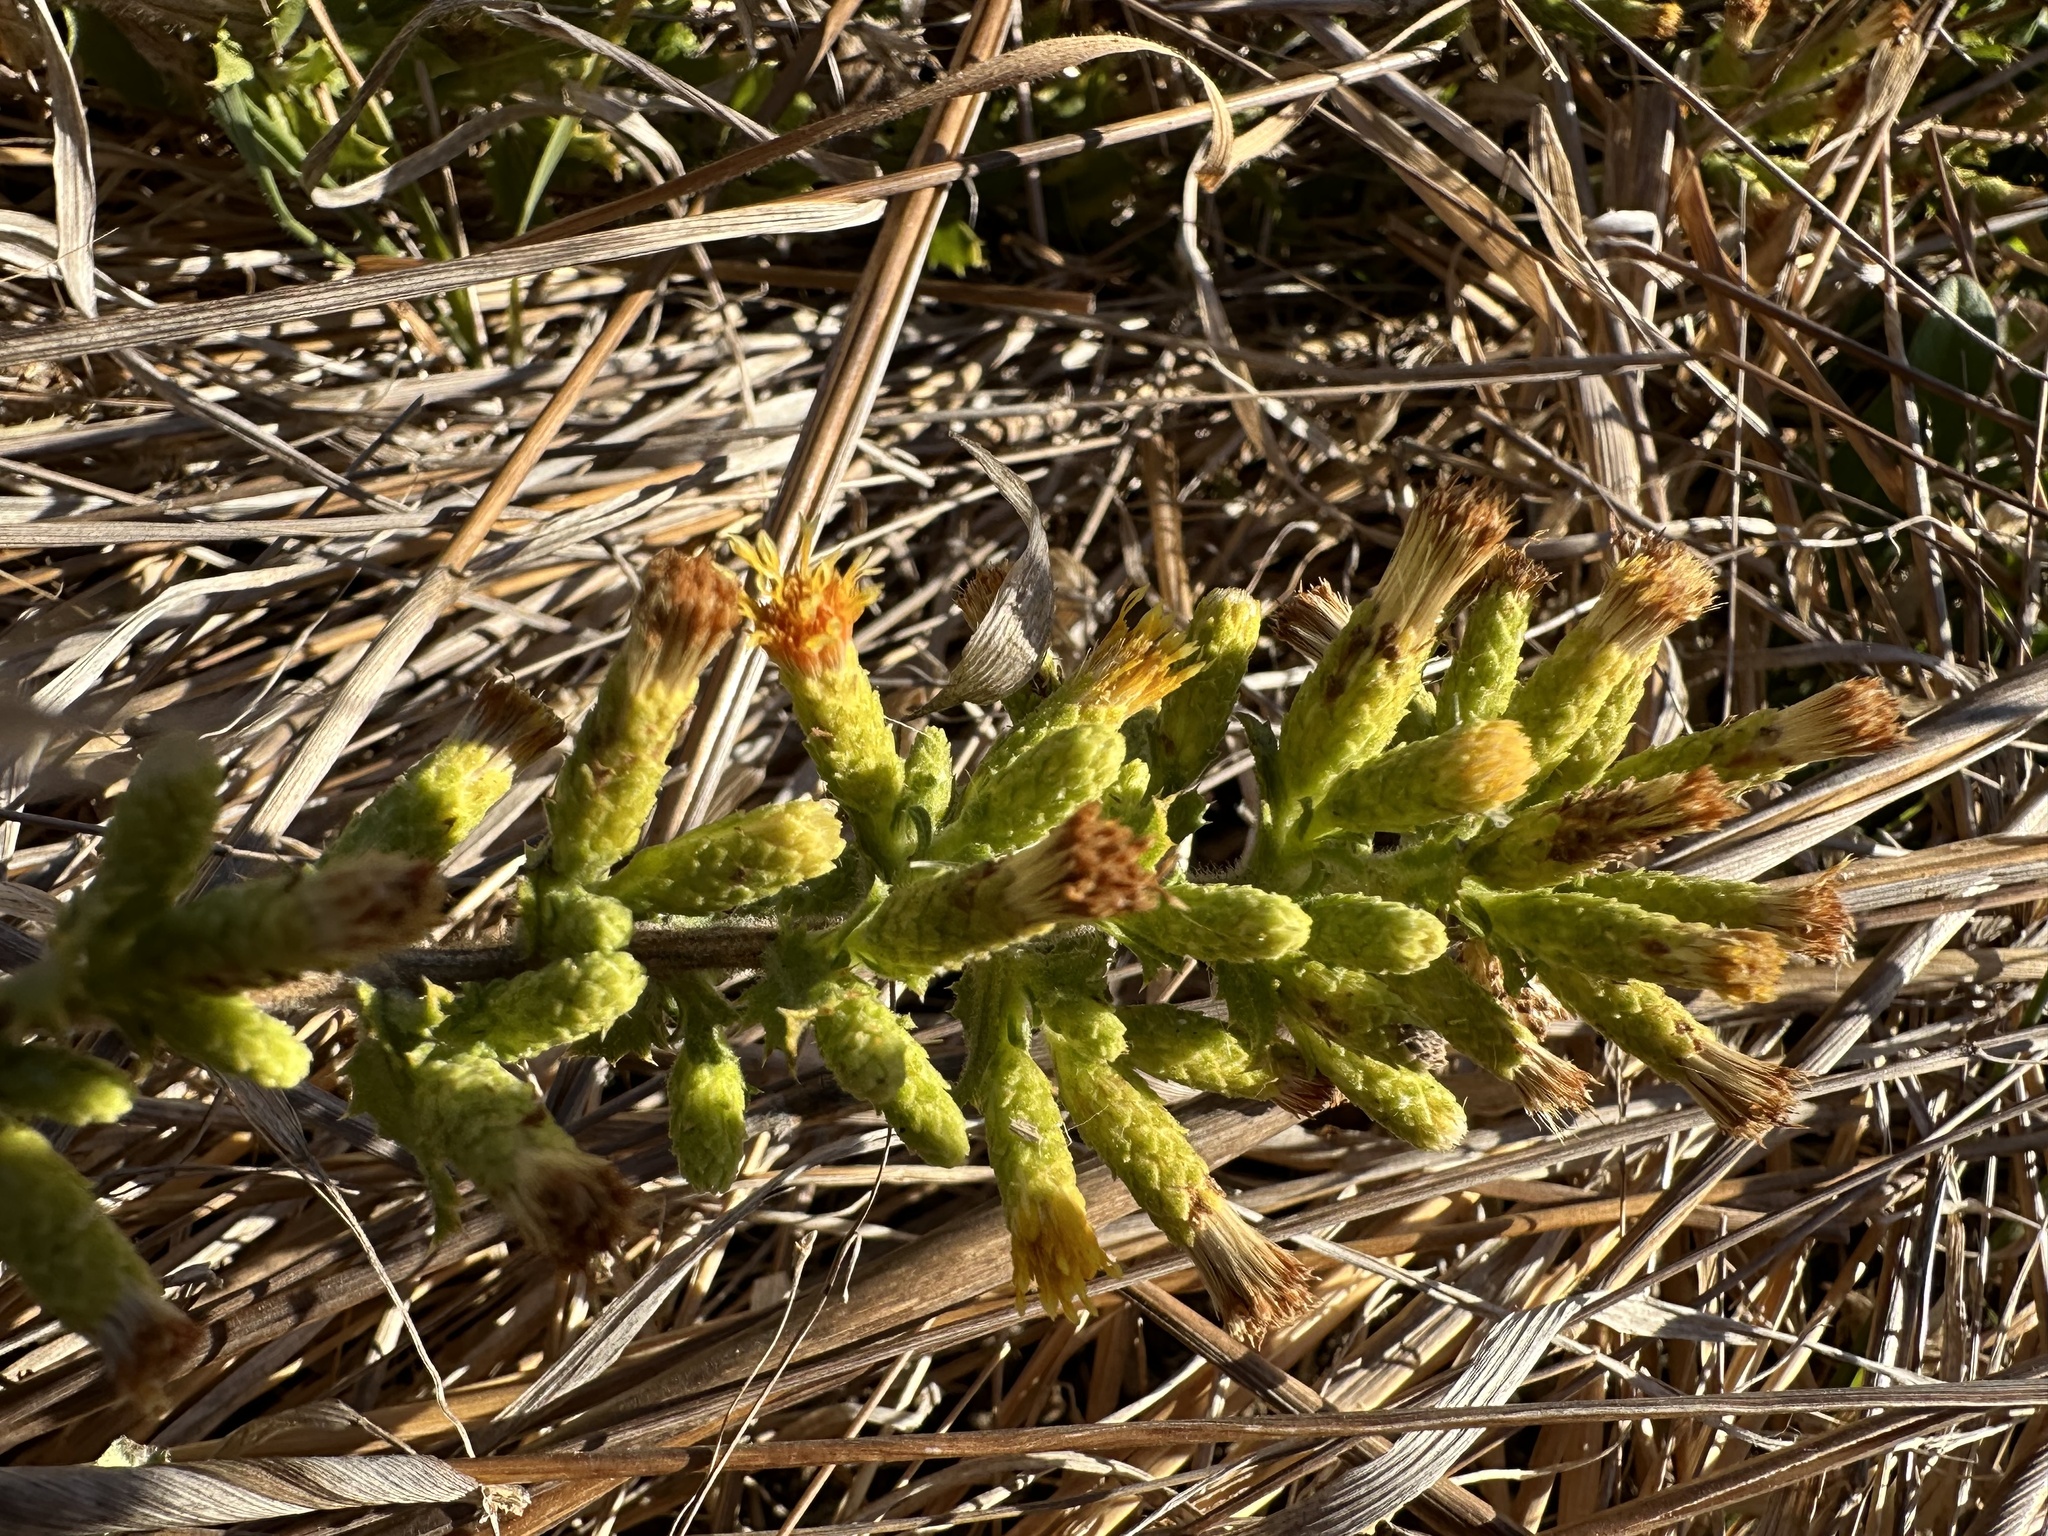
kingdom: Plantae
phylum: Tracheophyta
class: Magnoliopsida
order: Asterales
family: Asteraceae
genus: Hazardia
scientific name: Hazardia squarrosa
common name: Saw-tooth goldenbush
